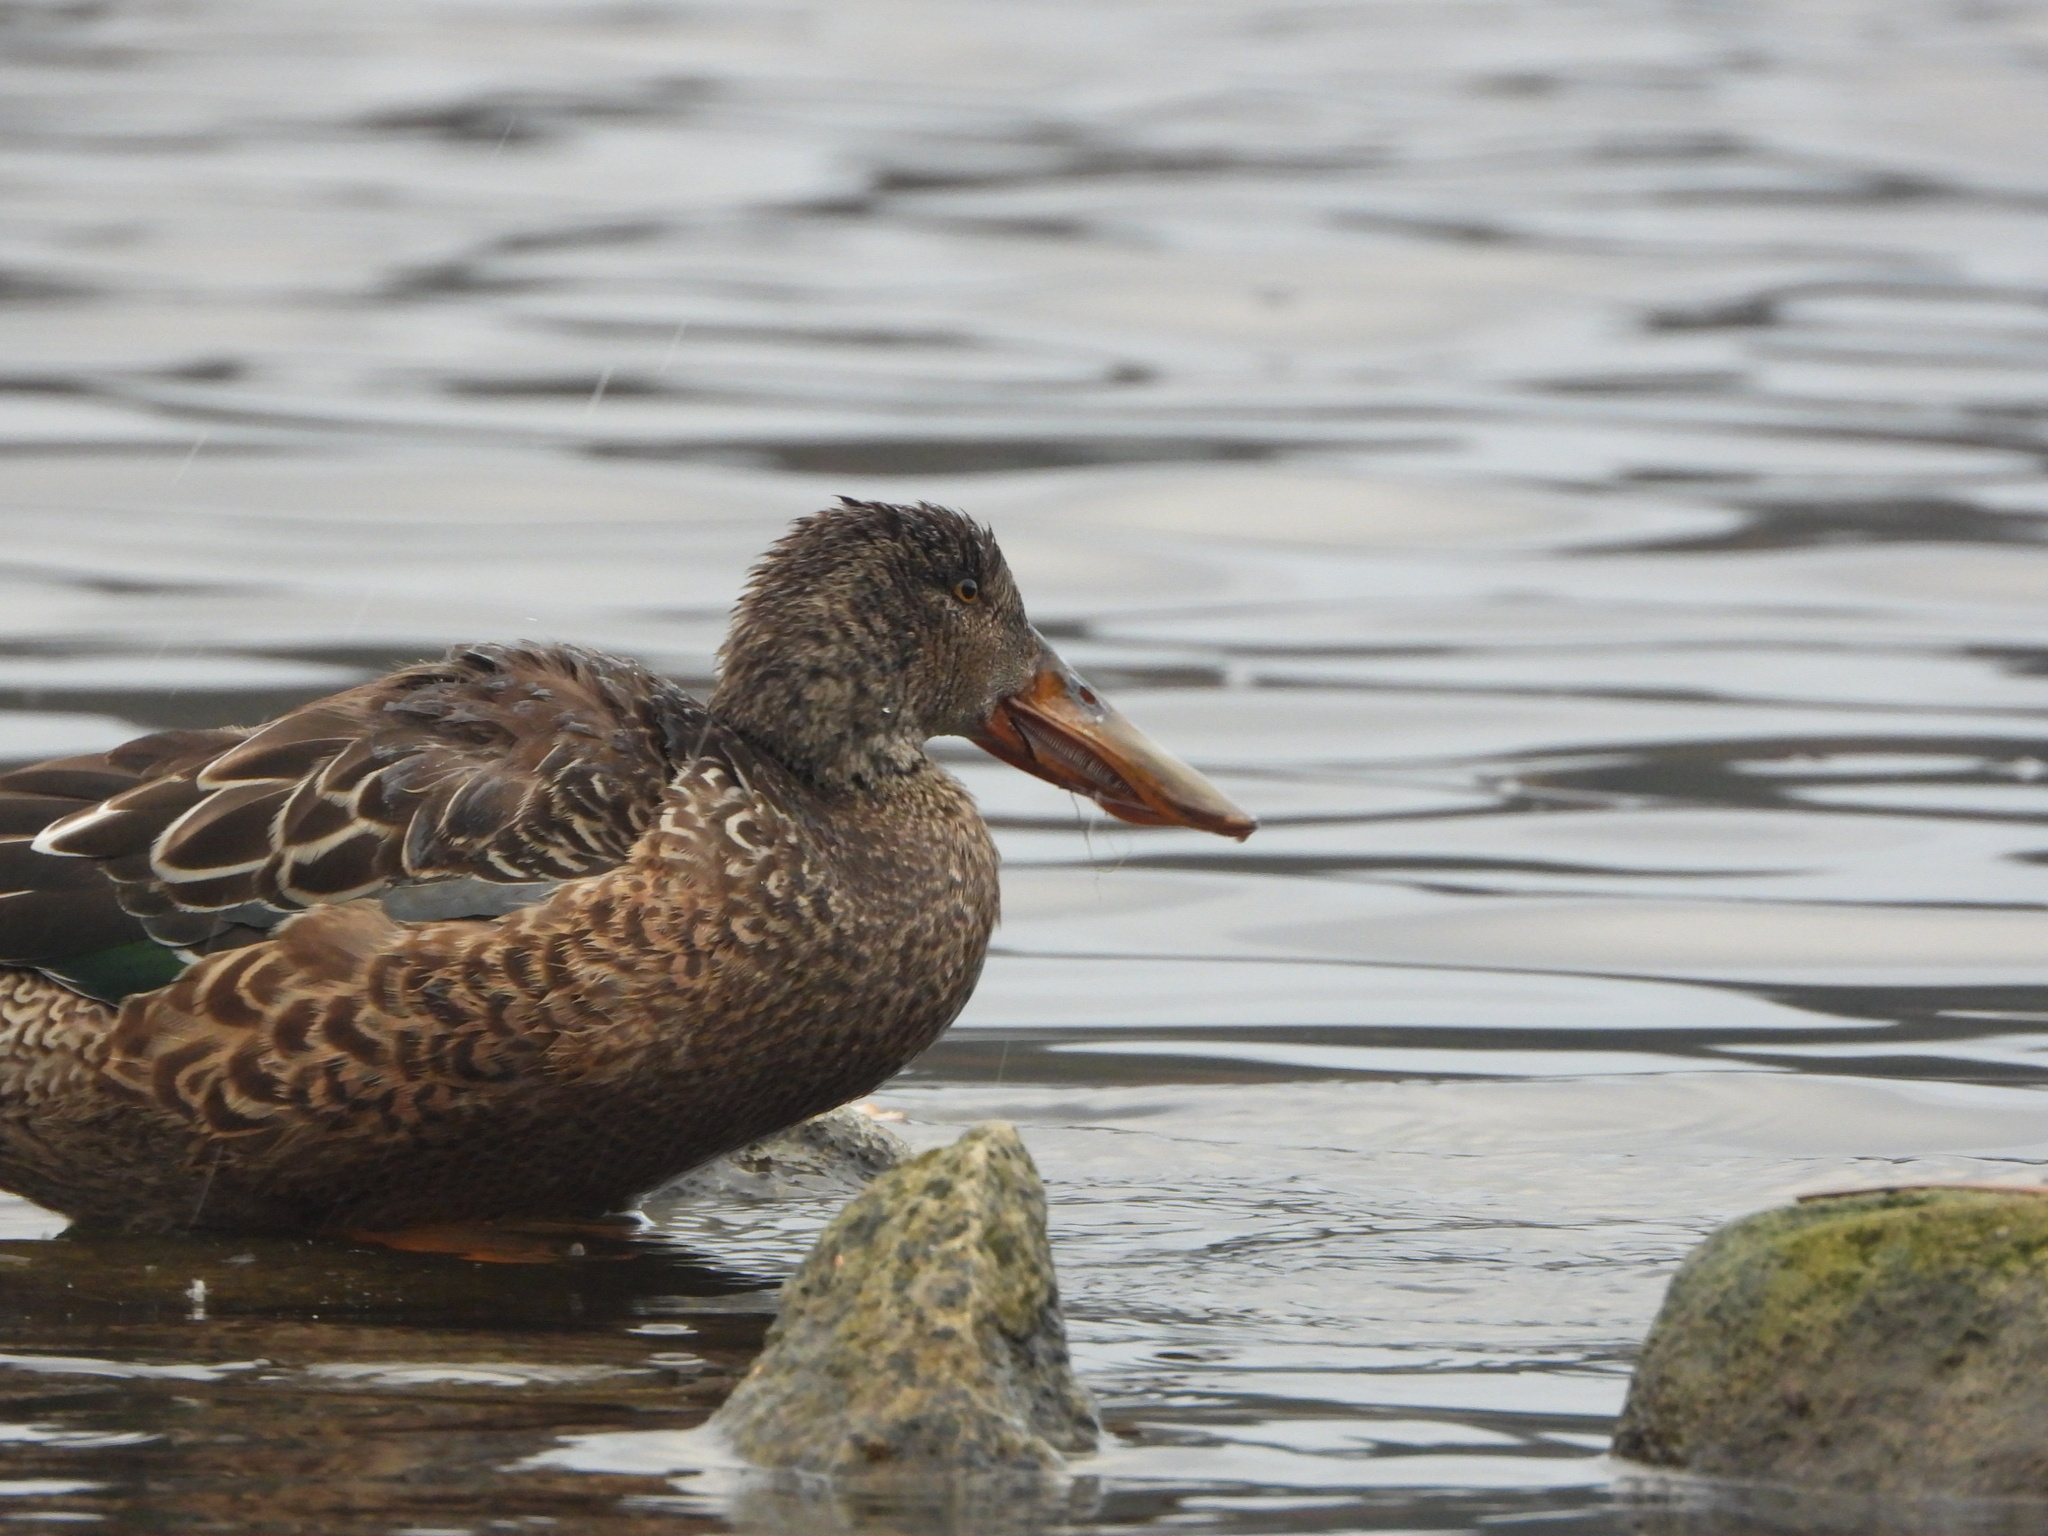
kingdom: Animalia
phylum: Chordata
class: Aves
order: Anseriformes
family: Anatidae
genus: Spatula
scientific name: Spatula clypeata
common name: Northern shoveler
